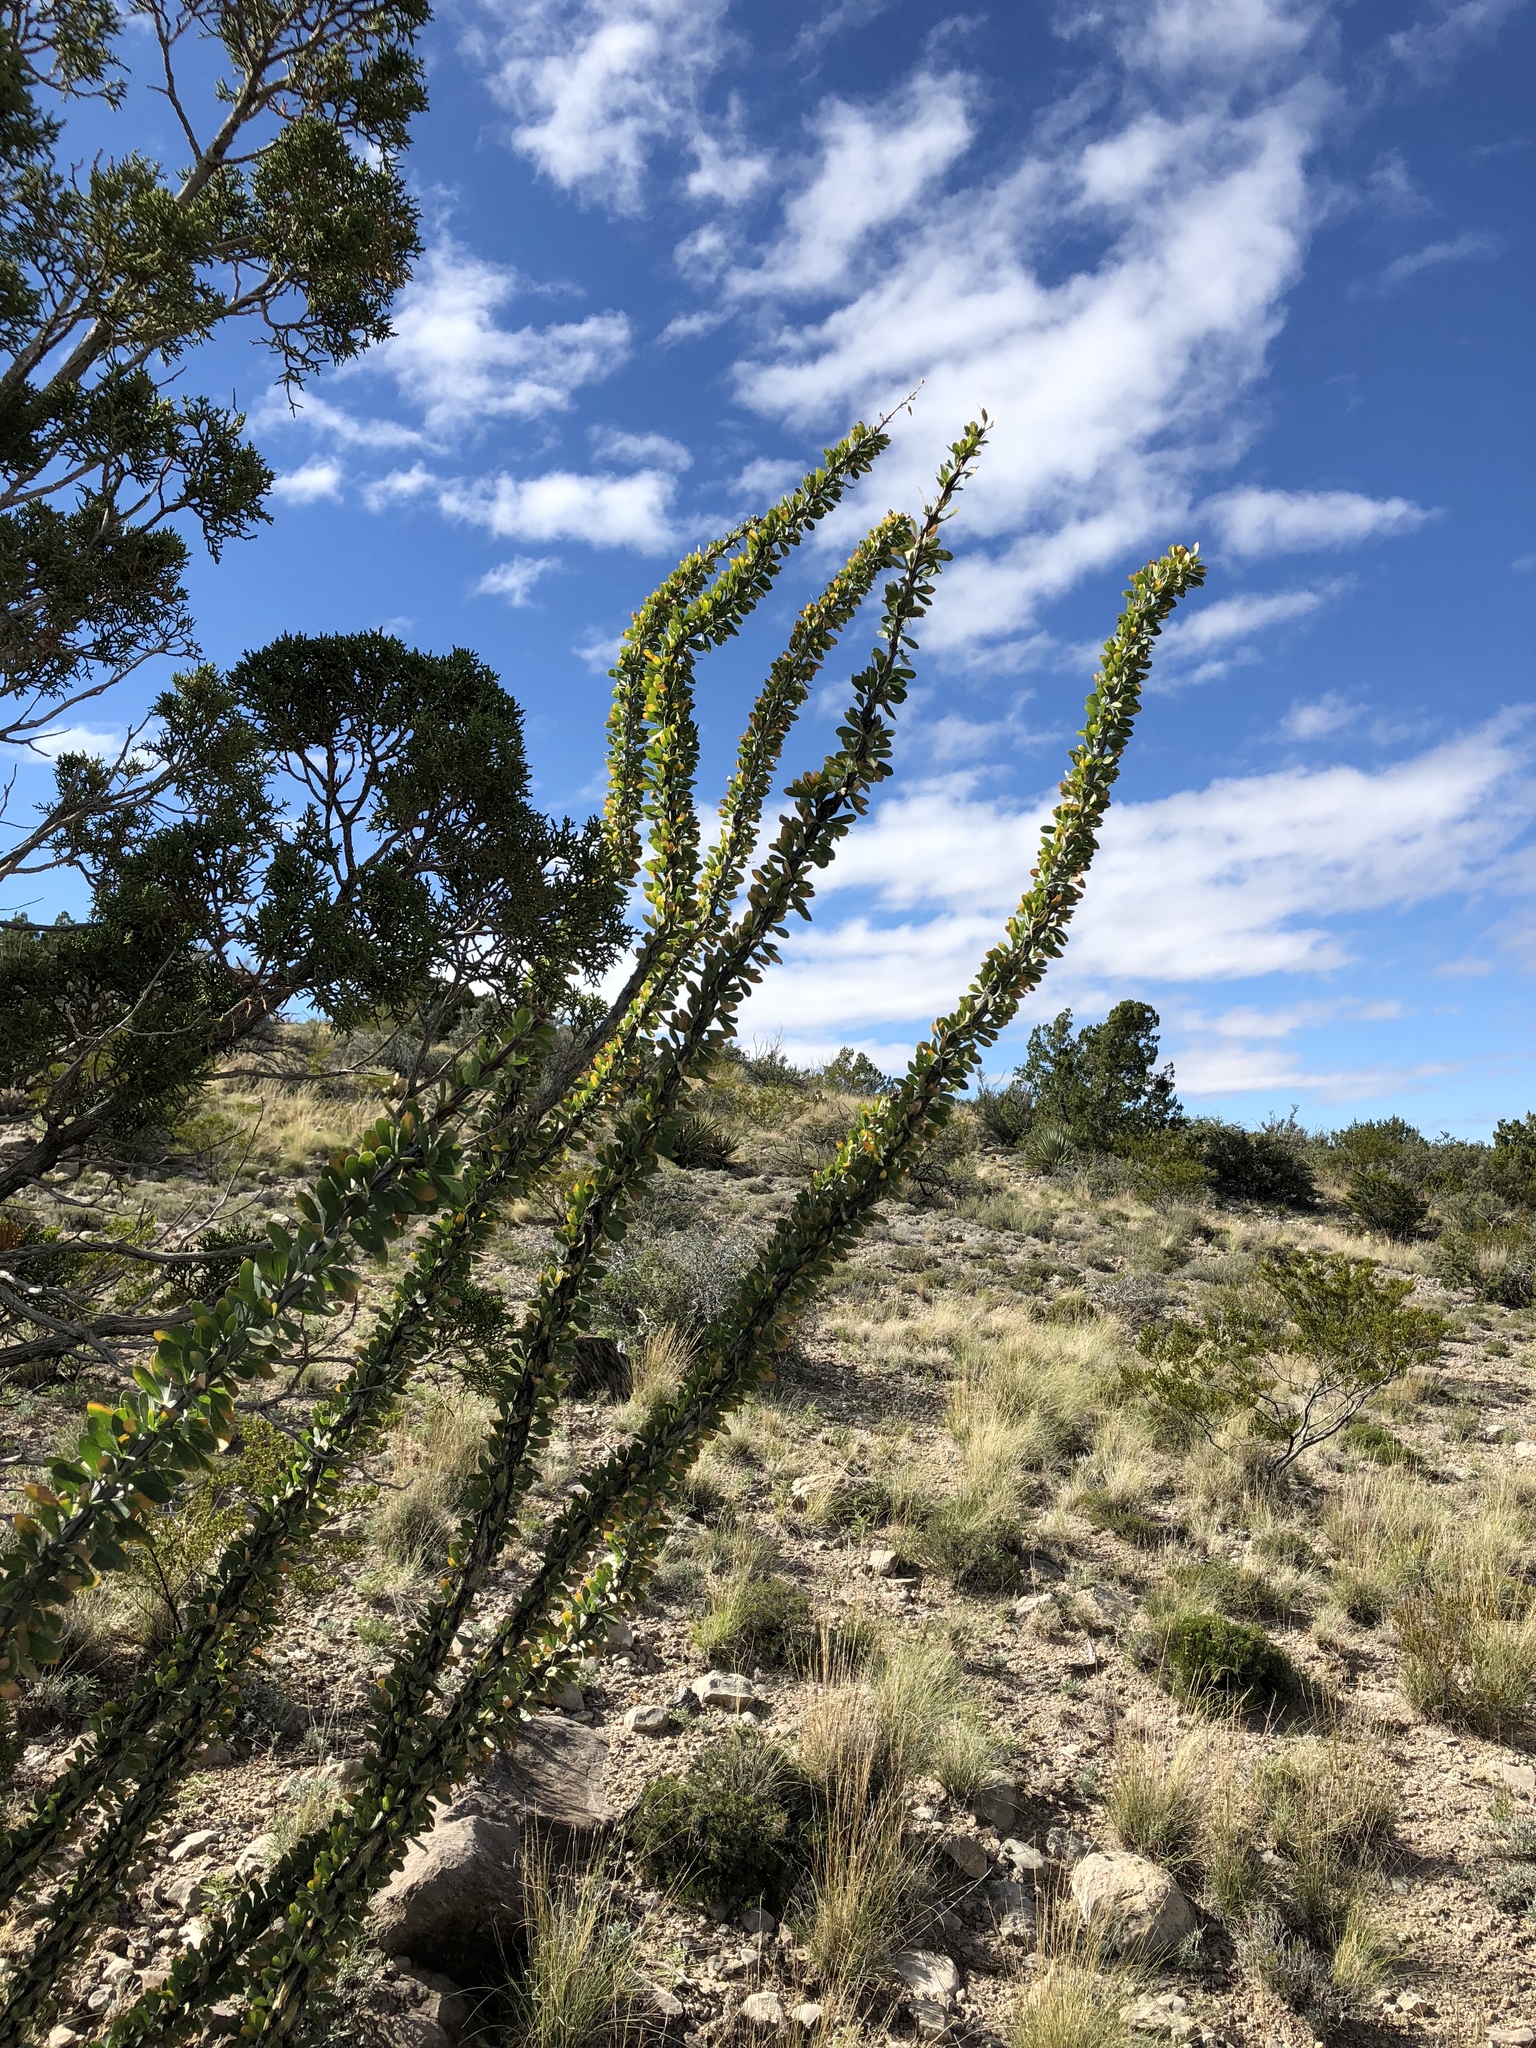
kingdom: Plantae
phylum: Tracheophyta
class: Magnoliopsida
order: Ericales
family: Fouquieriaceae
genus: Fouquieria
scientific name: Fouquieria splendens
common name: Vine-cactus
